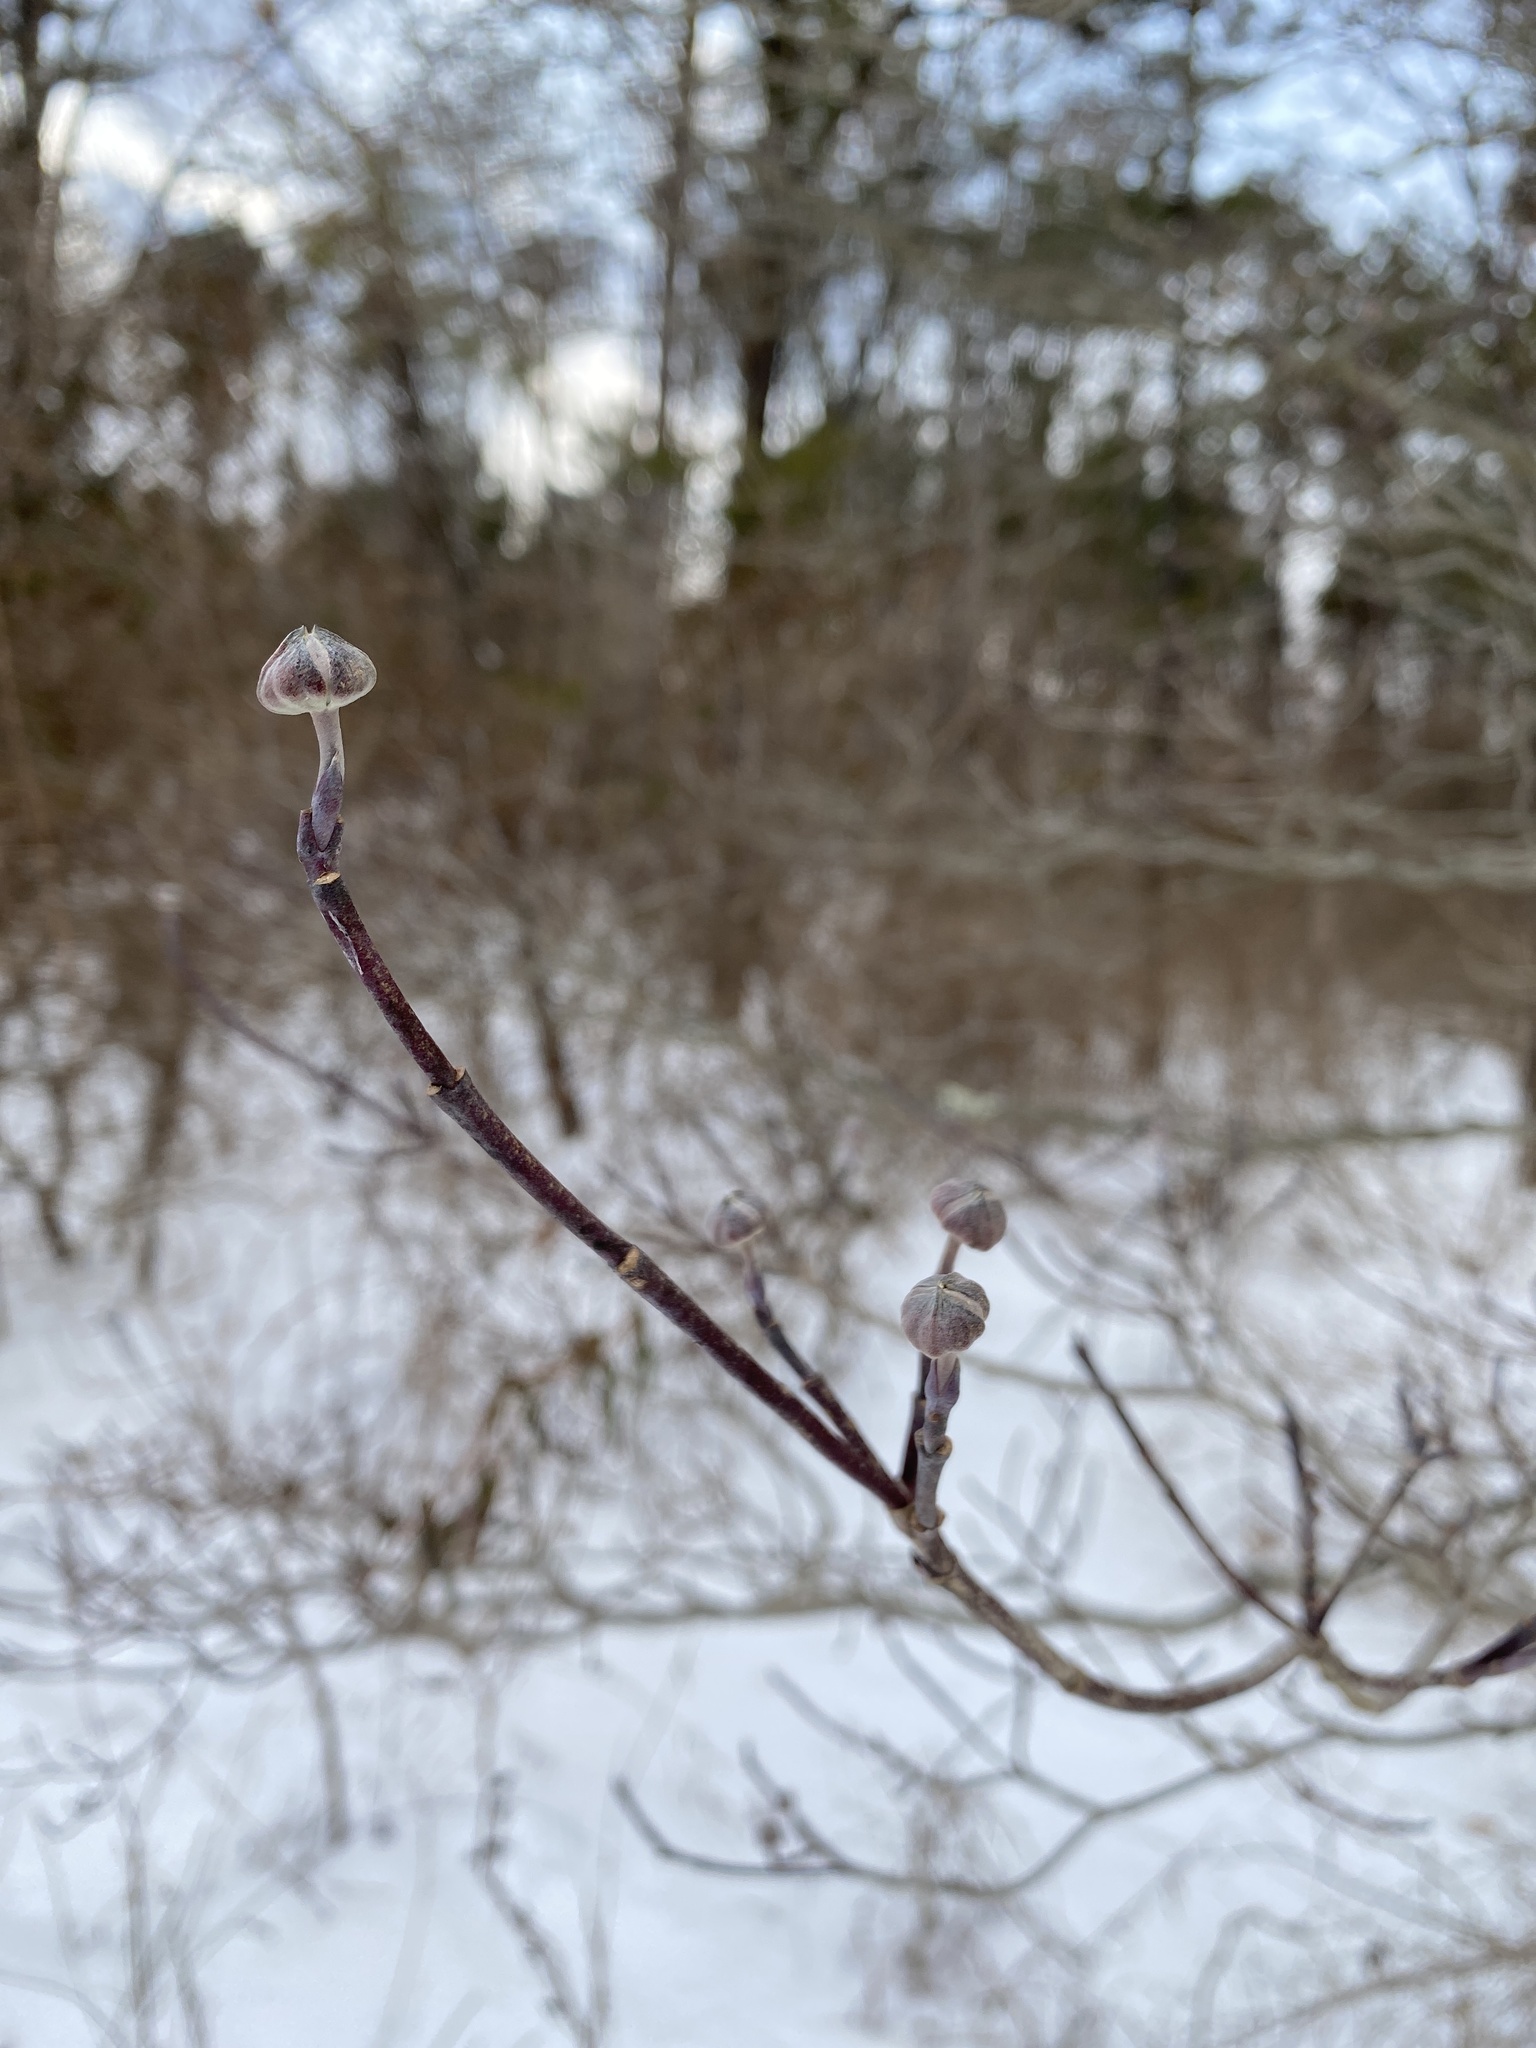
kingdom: Plantae
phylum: Tracheophyta
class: Magnoliopsida
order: Cornales
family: Cornaceae
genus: Cornus
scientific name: Cornus florida
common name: Flowering dogwood
